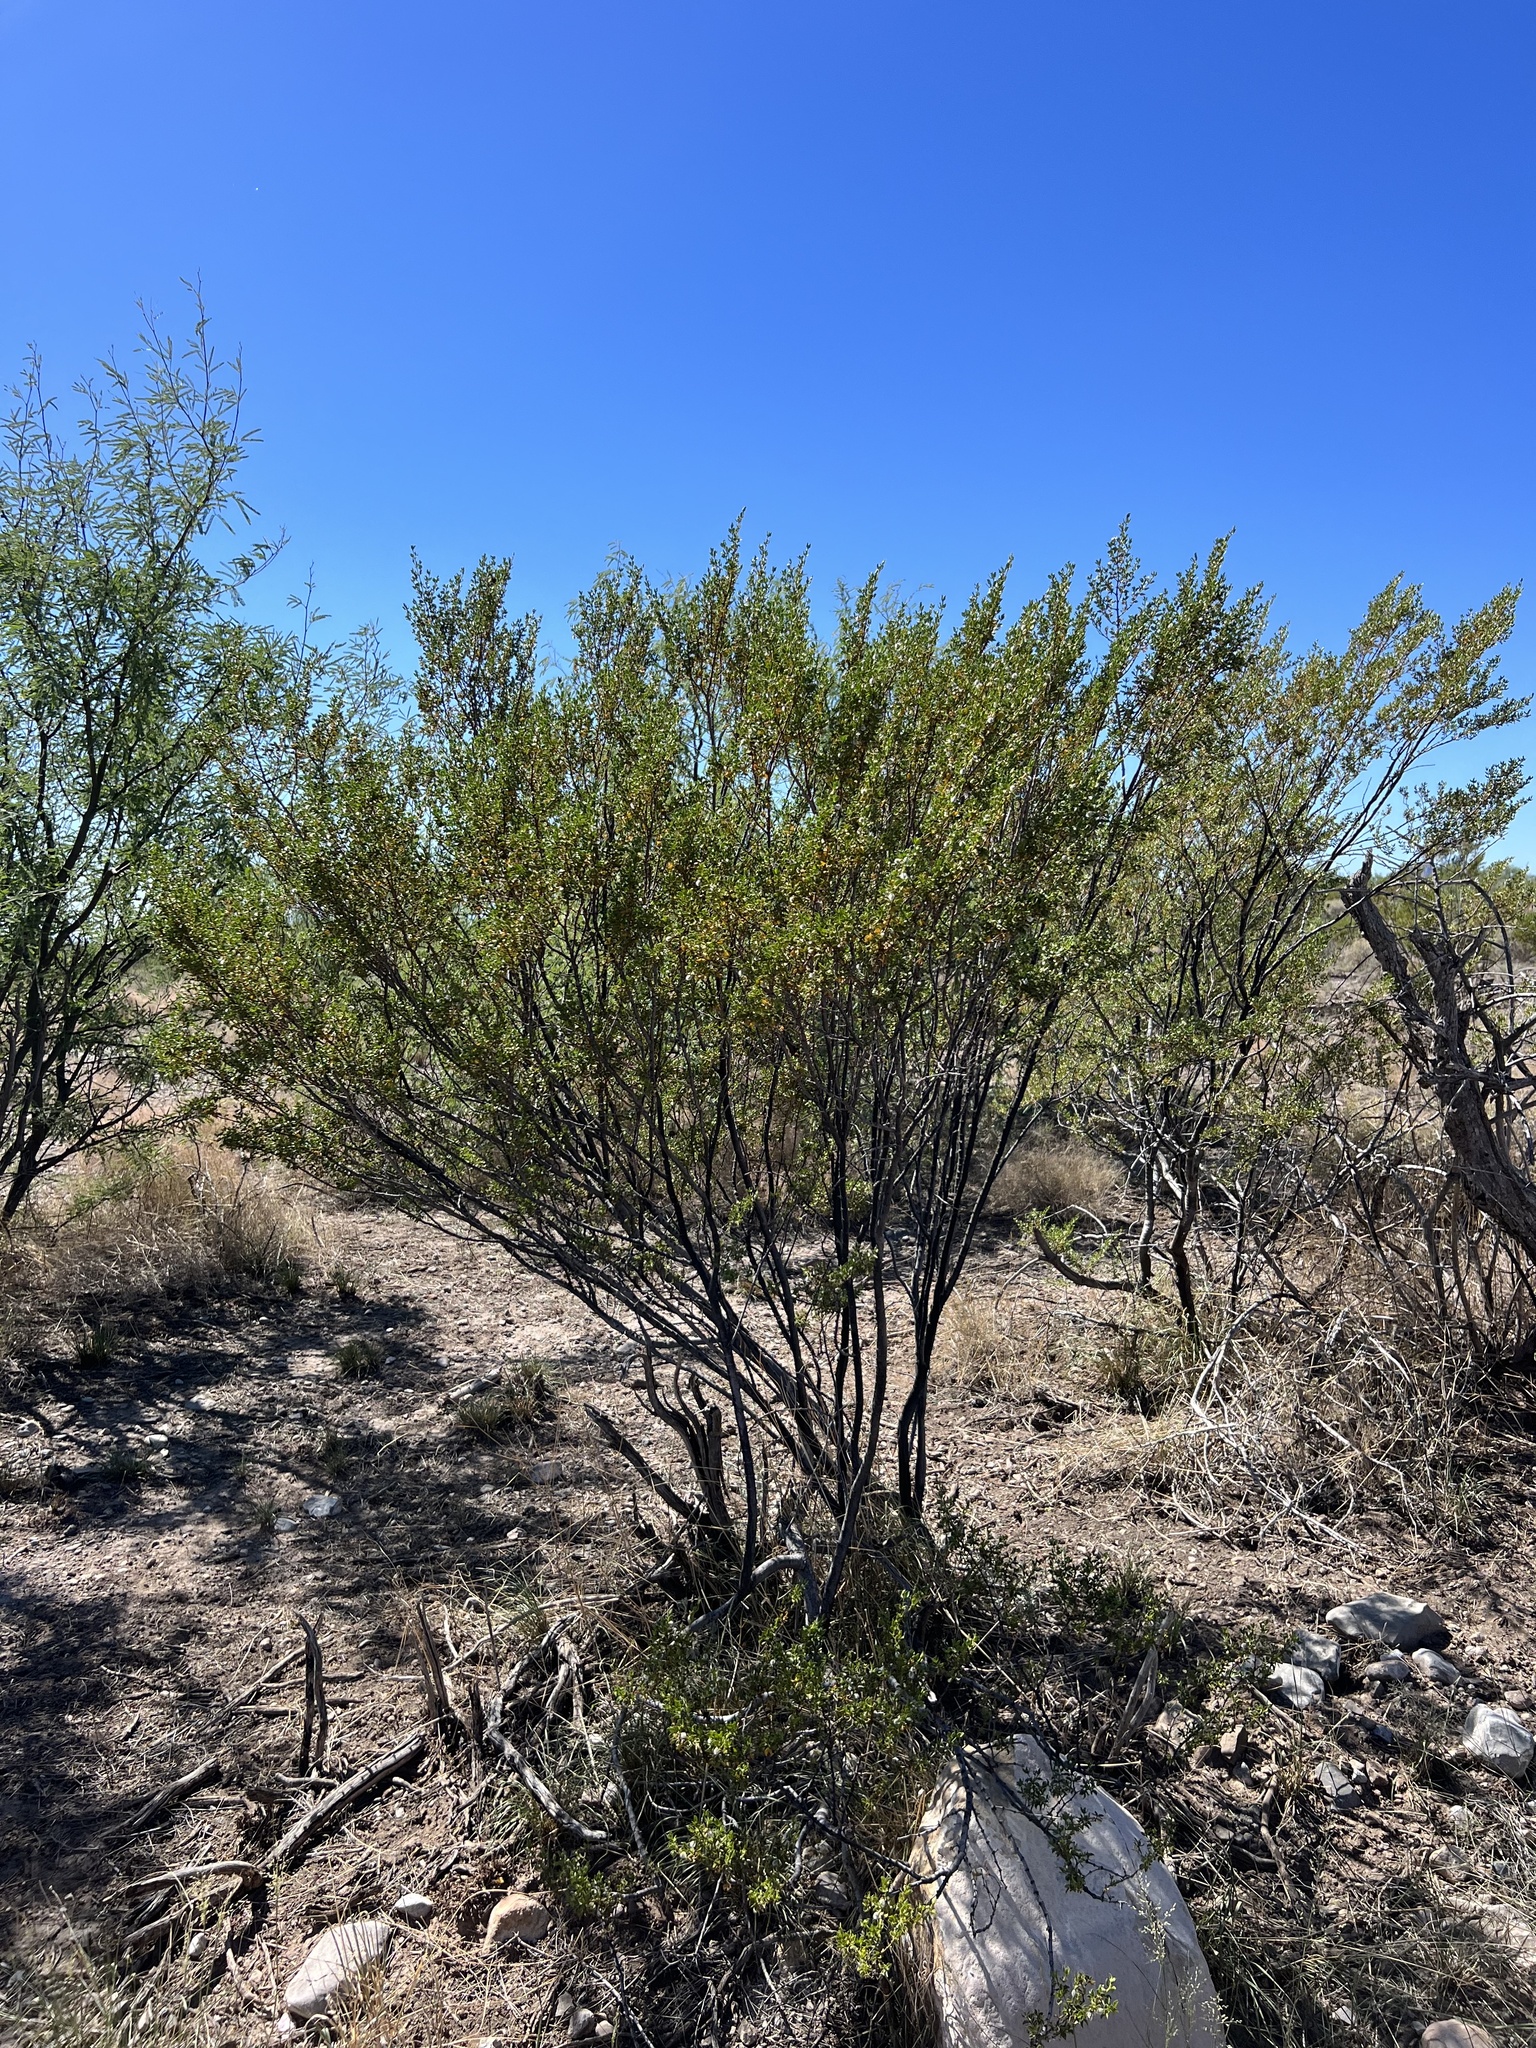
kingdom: Plantae
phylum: Tracheophyta
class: Magnoliopsida
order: Zygophyllales
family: Zygophyllaceae
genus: Larrea
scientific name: Larrea tridentata
